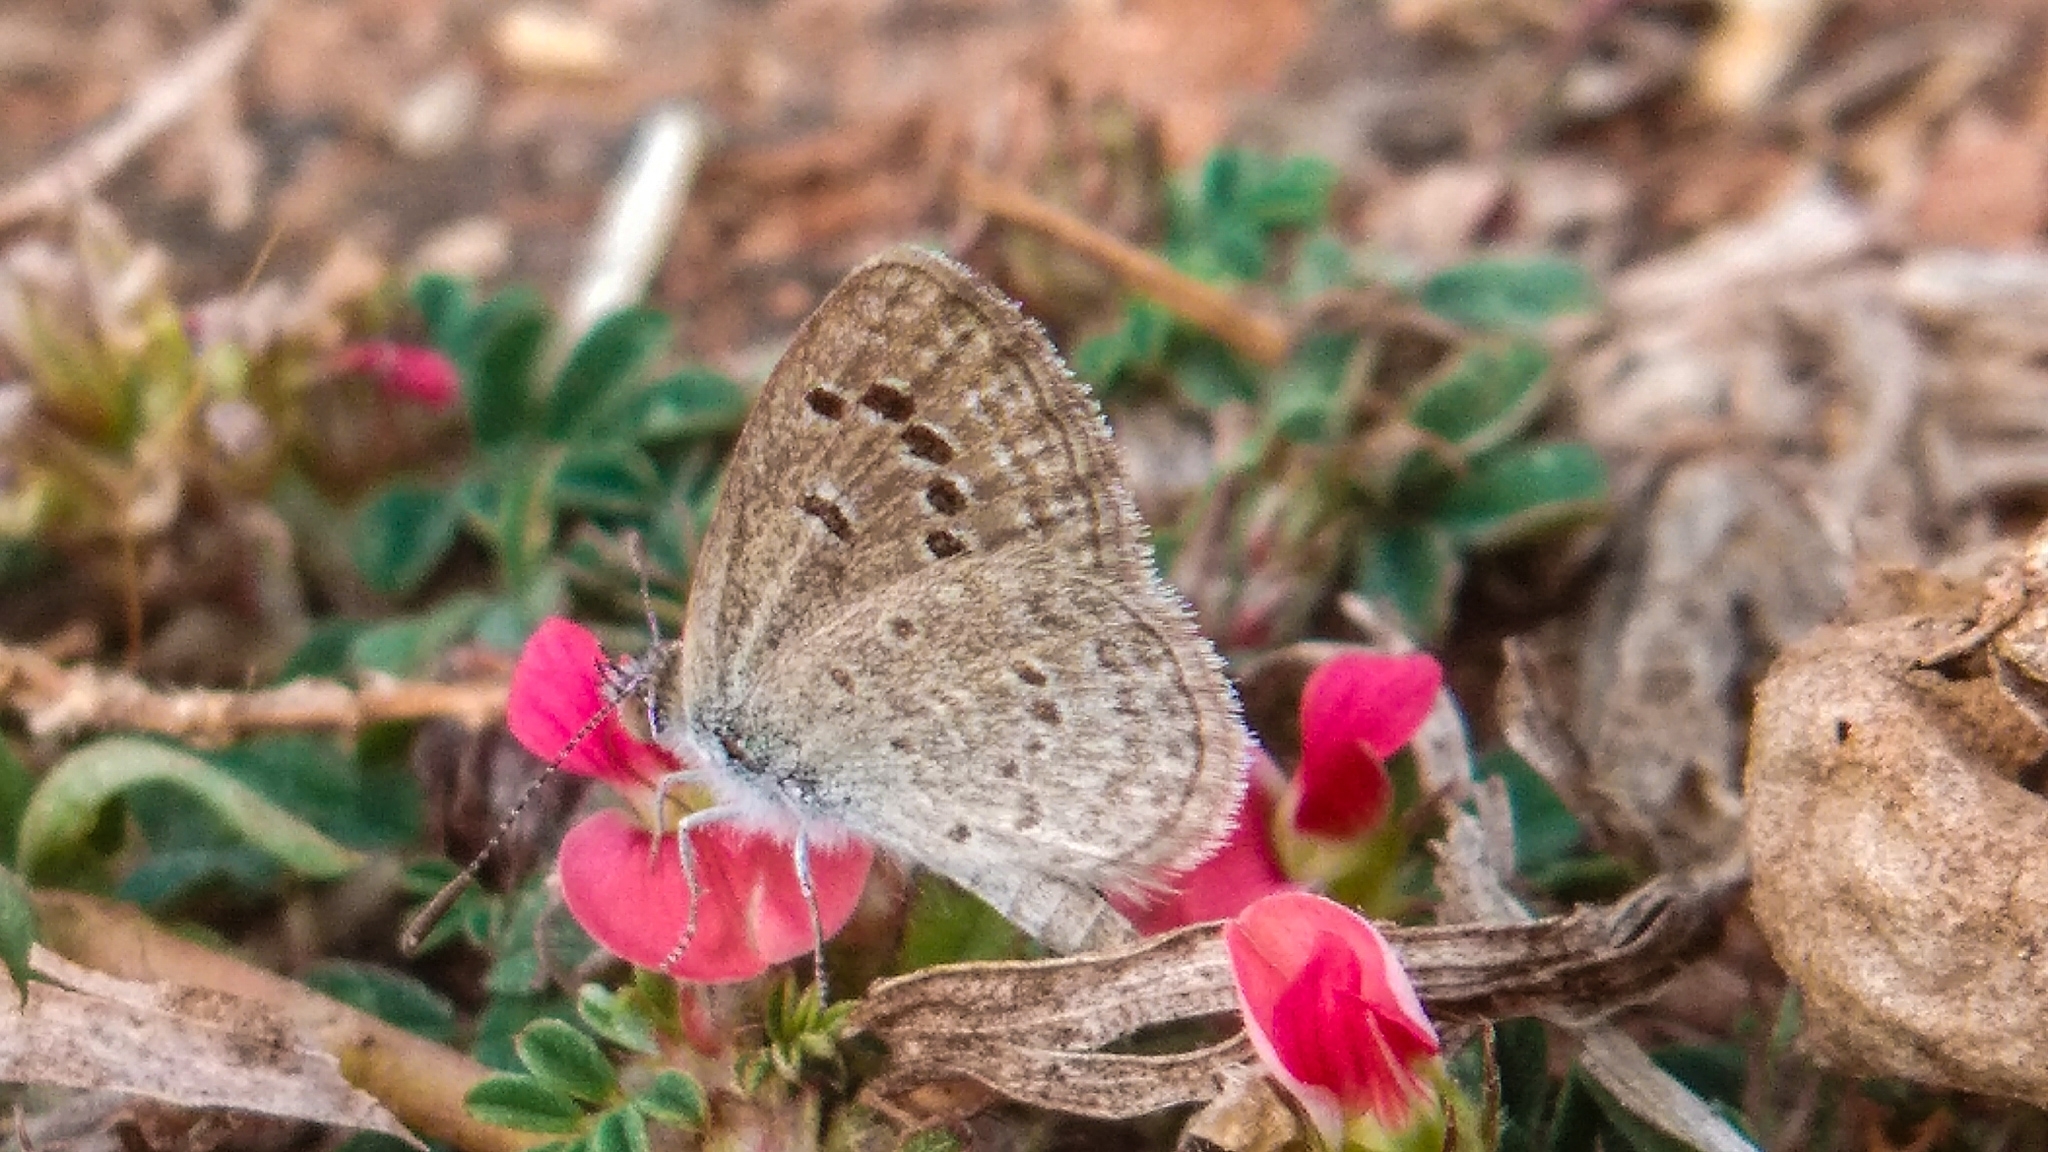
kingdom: Animalia
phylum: Arthropoda
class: Insecta
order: Lepidoptera
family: Lycaenidae
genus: Zizina
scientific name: Zizina otis
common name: Lesser grass blue
